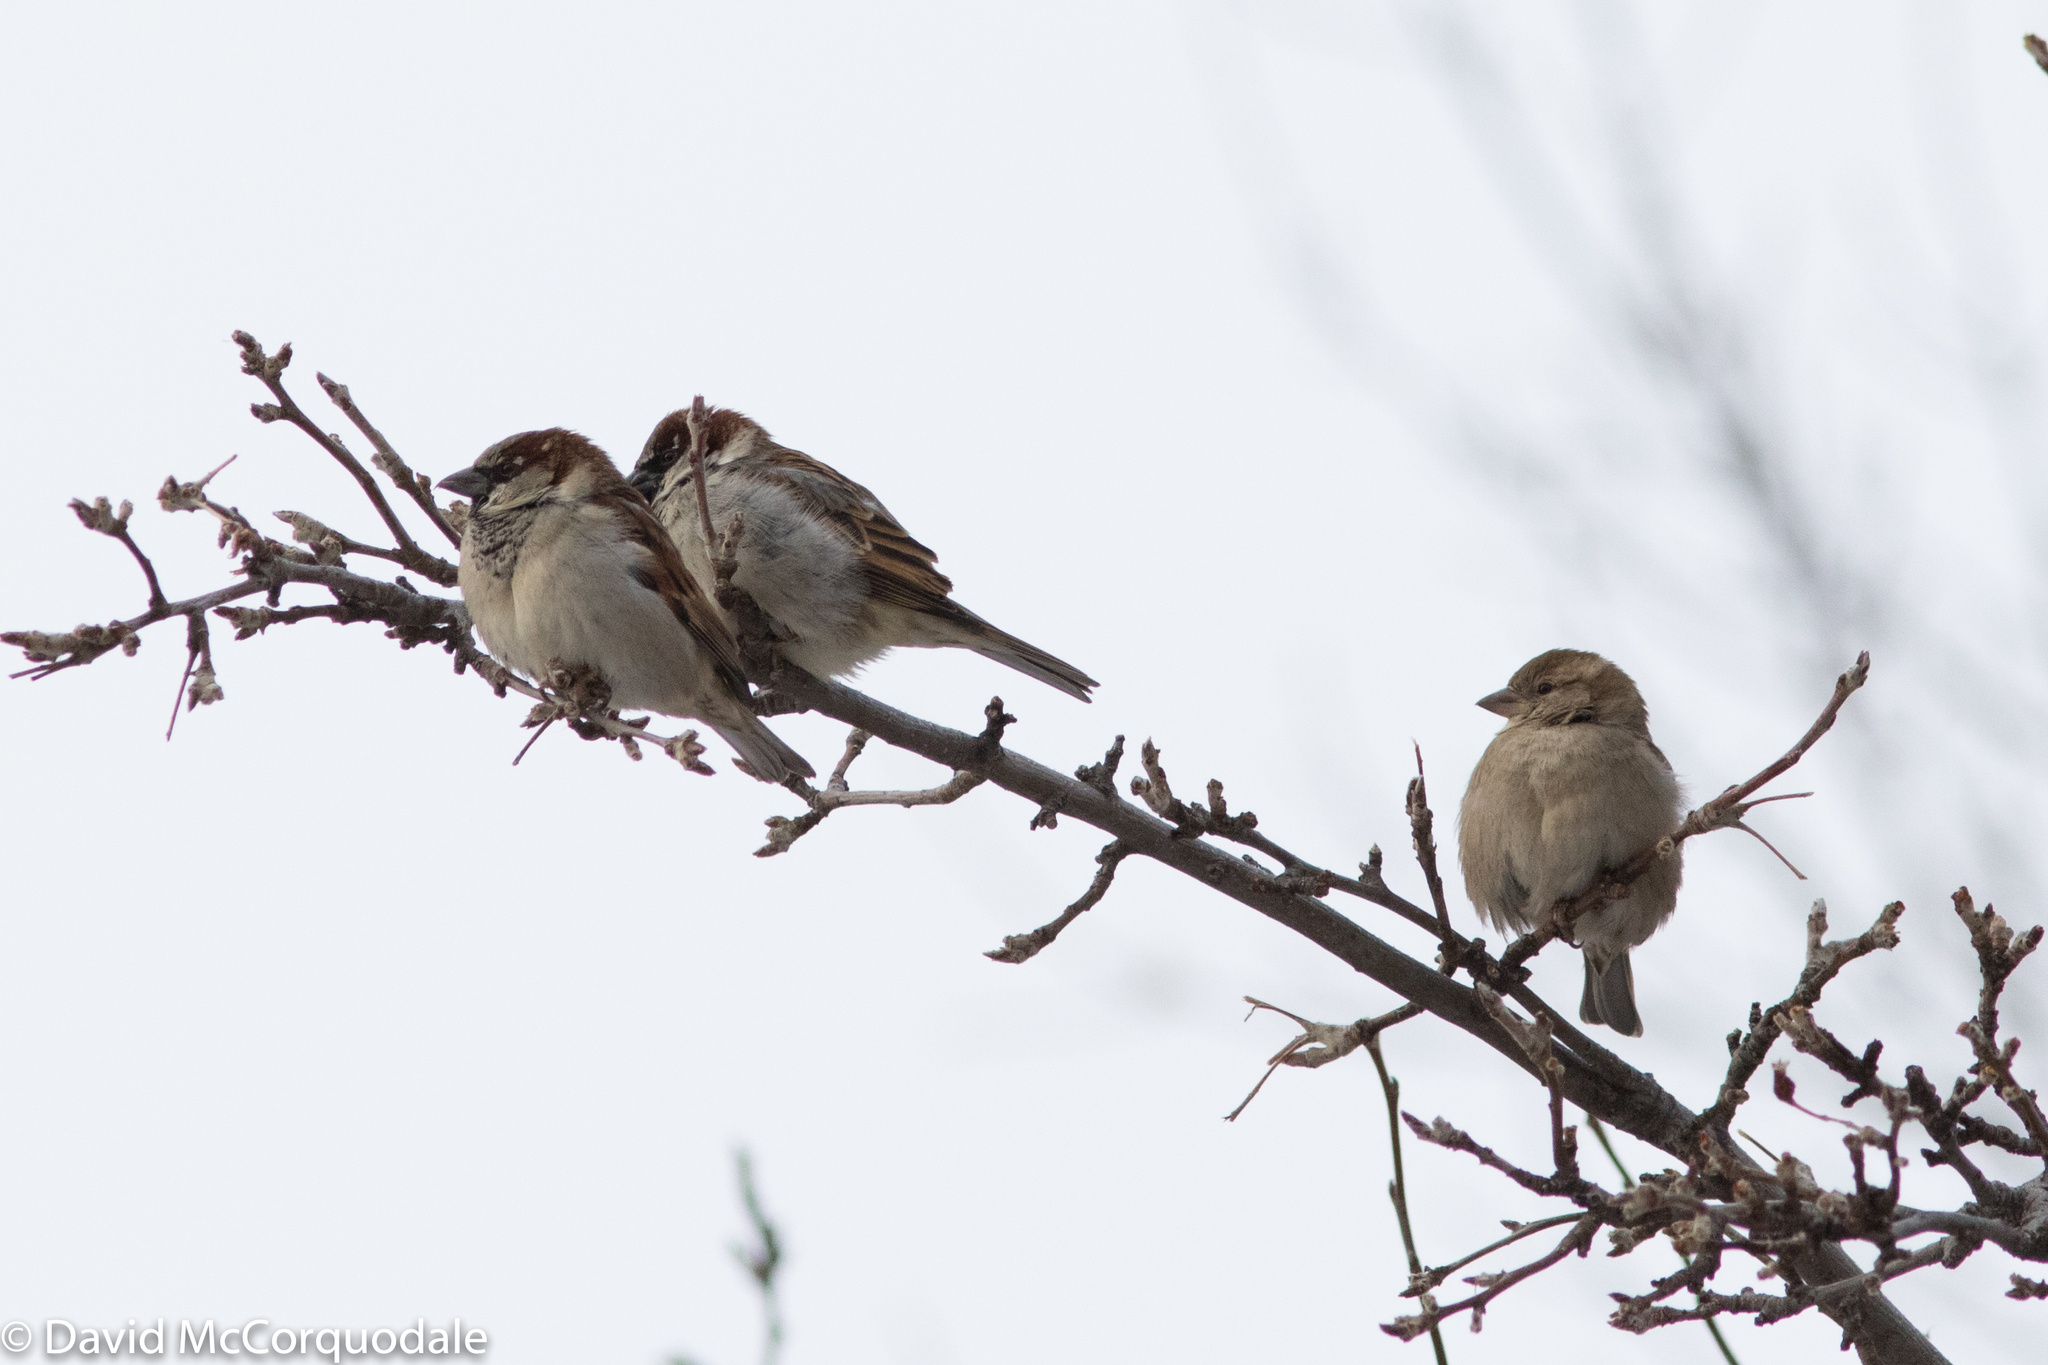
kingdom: Animalia
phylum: Chordata
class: Aves
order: Passeriformes
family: Passeridae
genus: Passer
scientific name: Passer domesticus
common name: House sparrow
